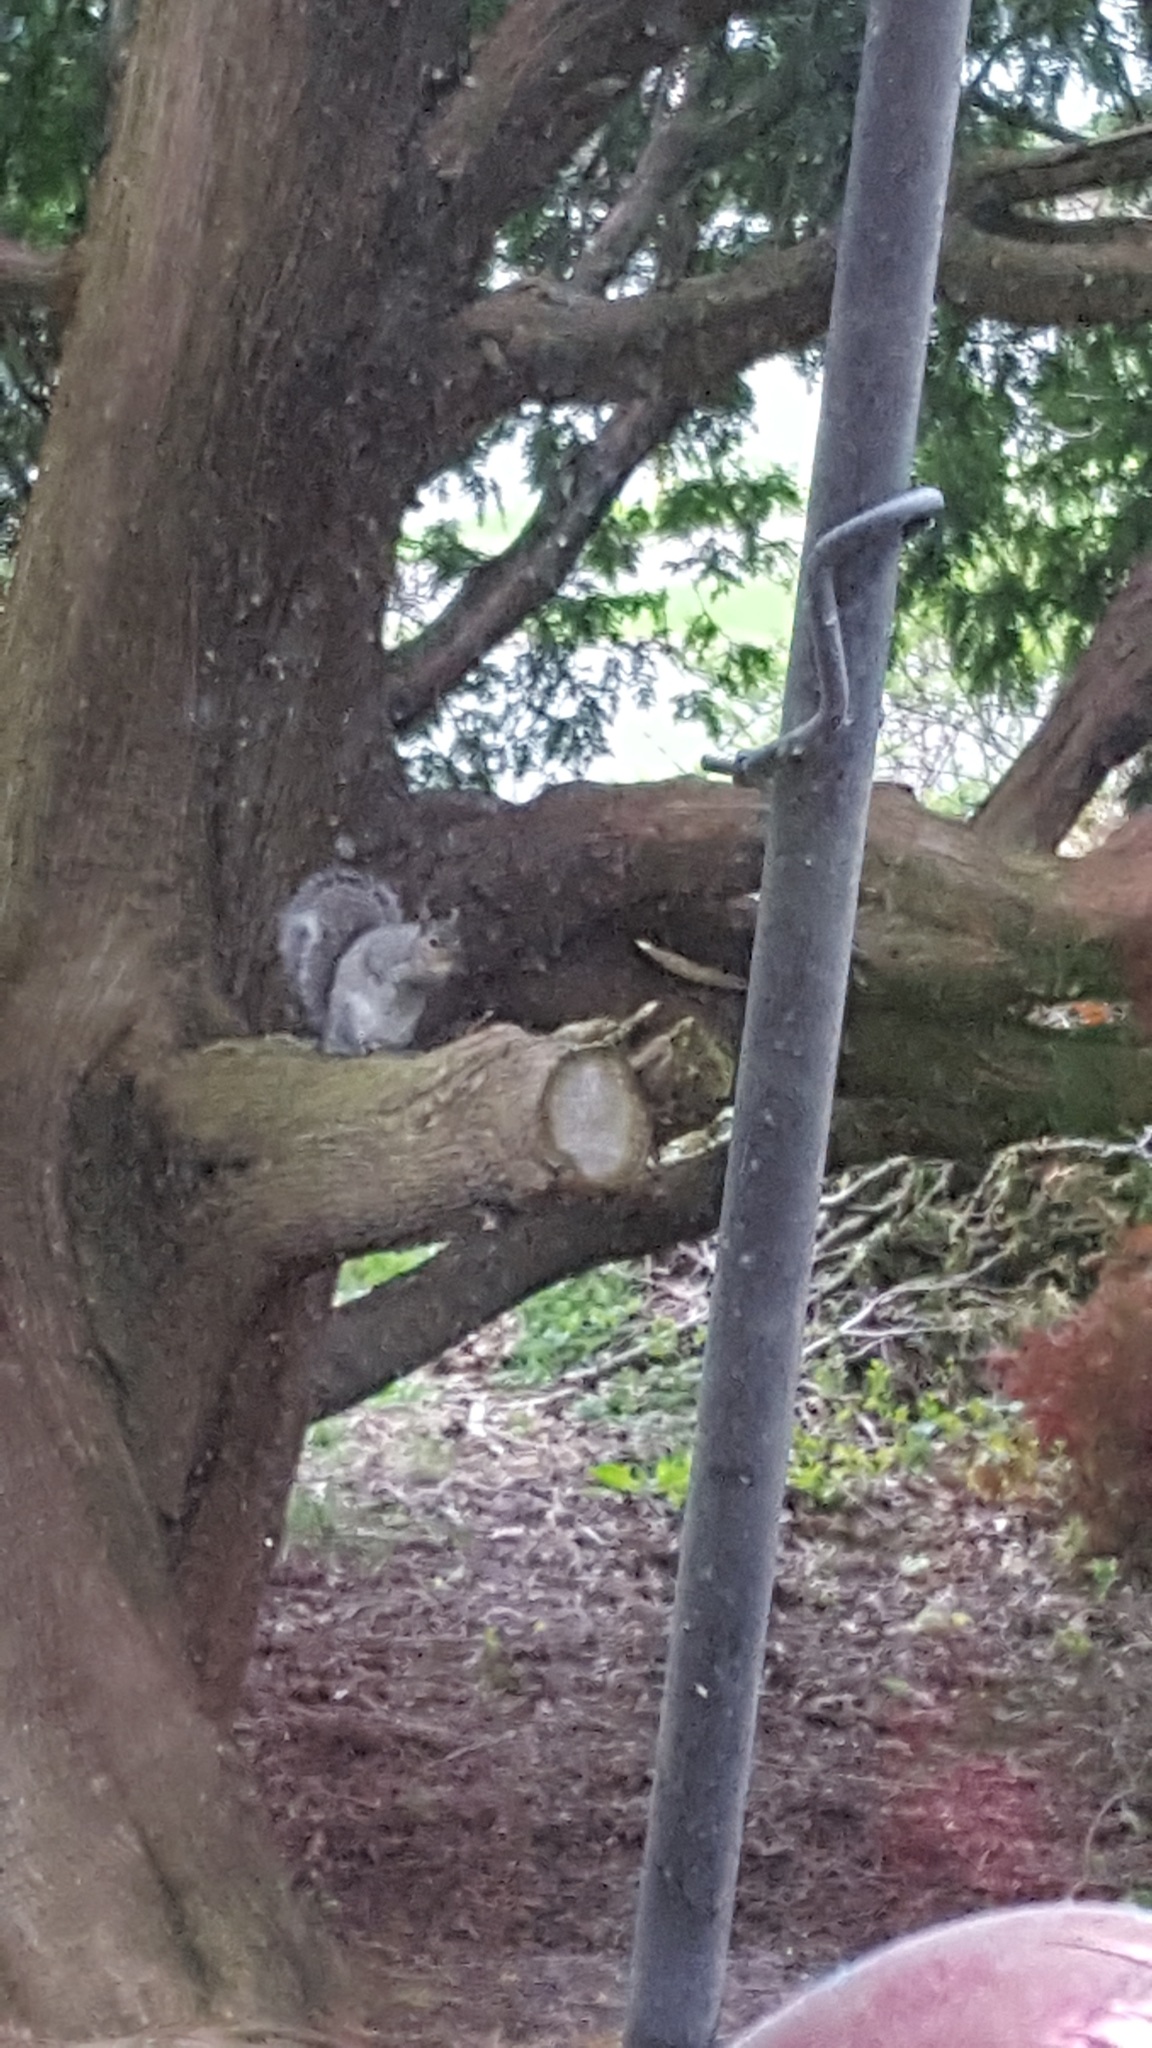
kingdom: Animalia
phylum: Chordata
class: Mammalia
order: Rodentia
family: Sciuridae
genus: Sciurus
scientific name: Sciurus carolinensis
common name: Eastern gray squirrel
